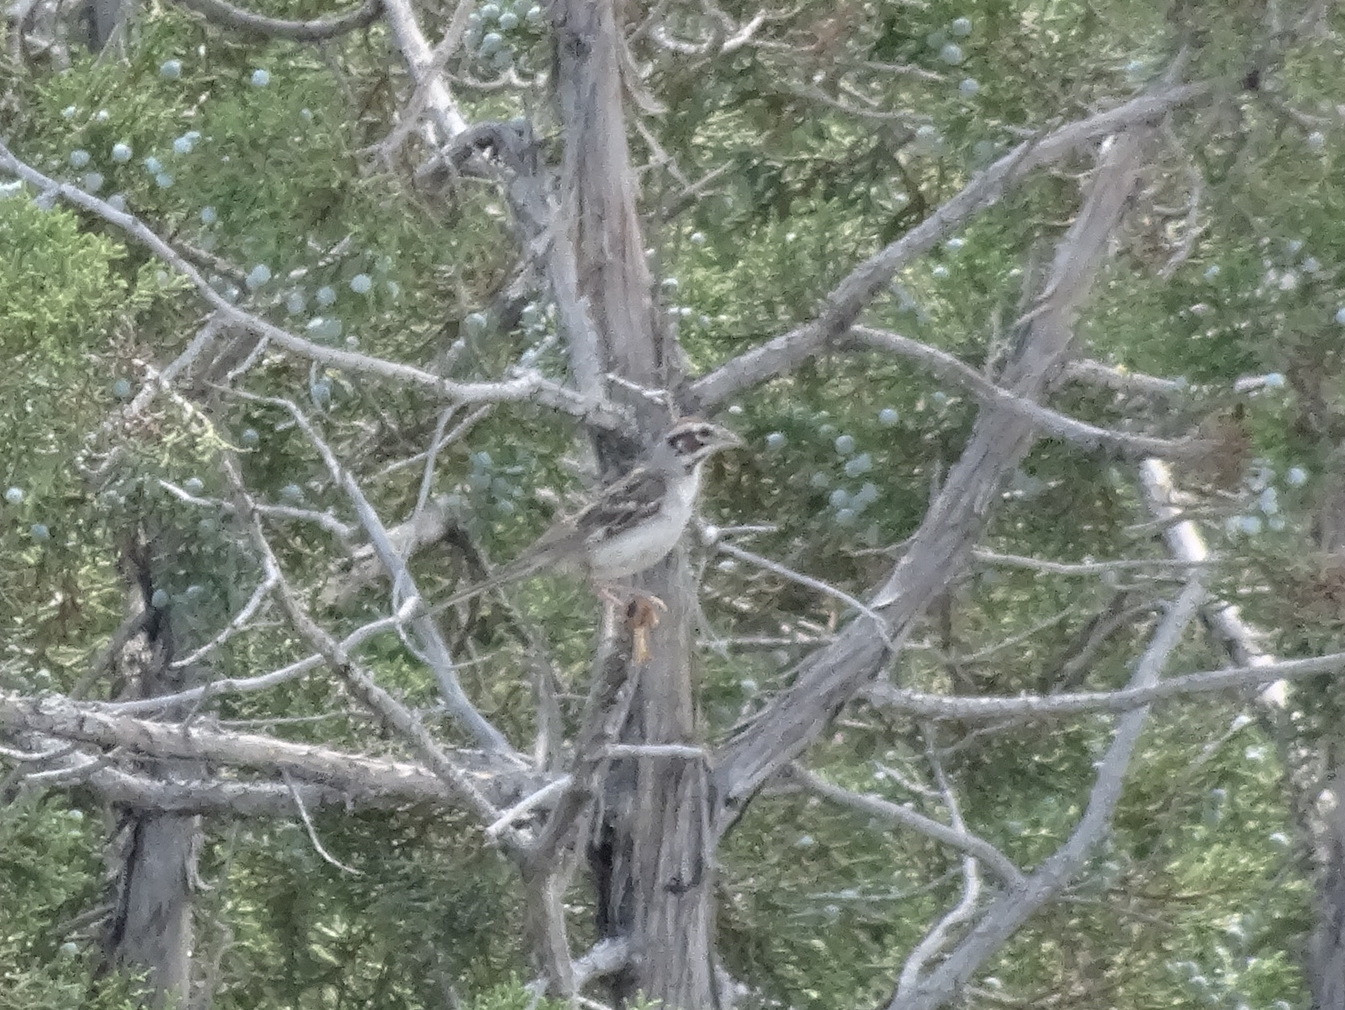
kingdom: Animalia
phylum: Chordata
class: Aves
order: Passeriformes
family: Passerellidae
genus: Chondestes
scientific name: Chondestes grammacus
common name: Lark sparrow
